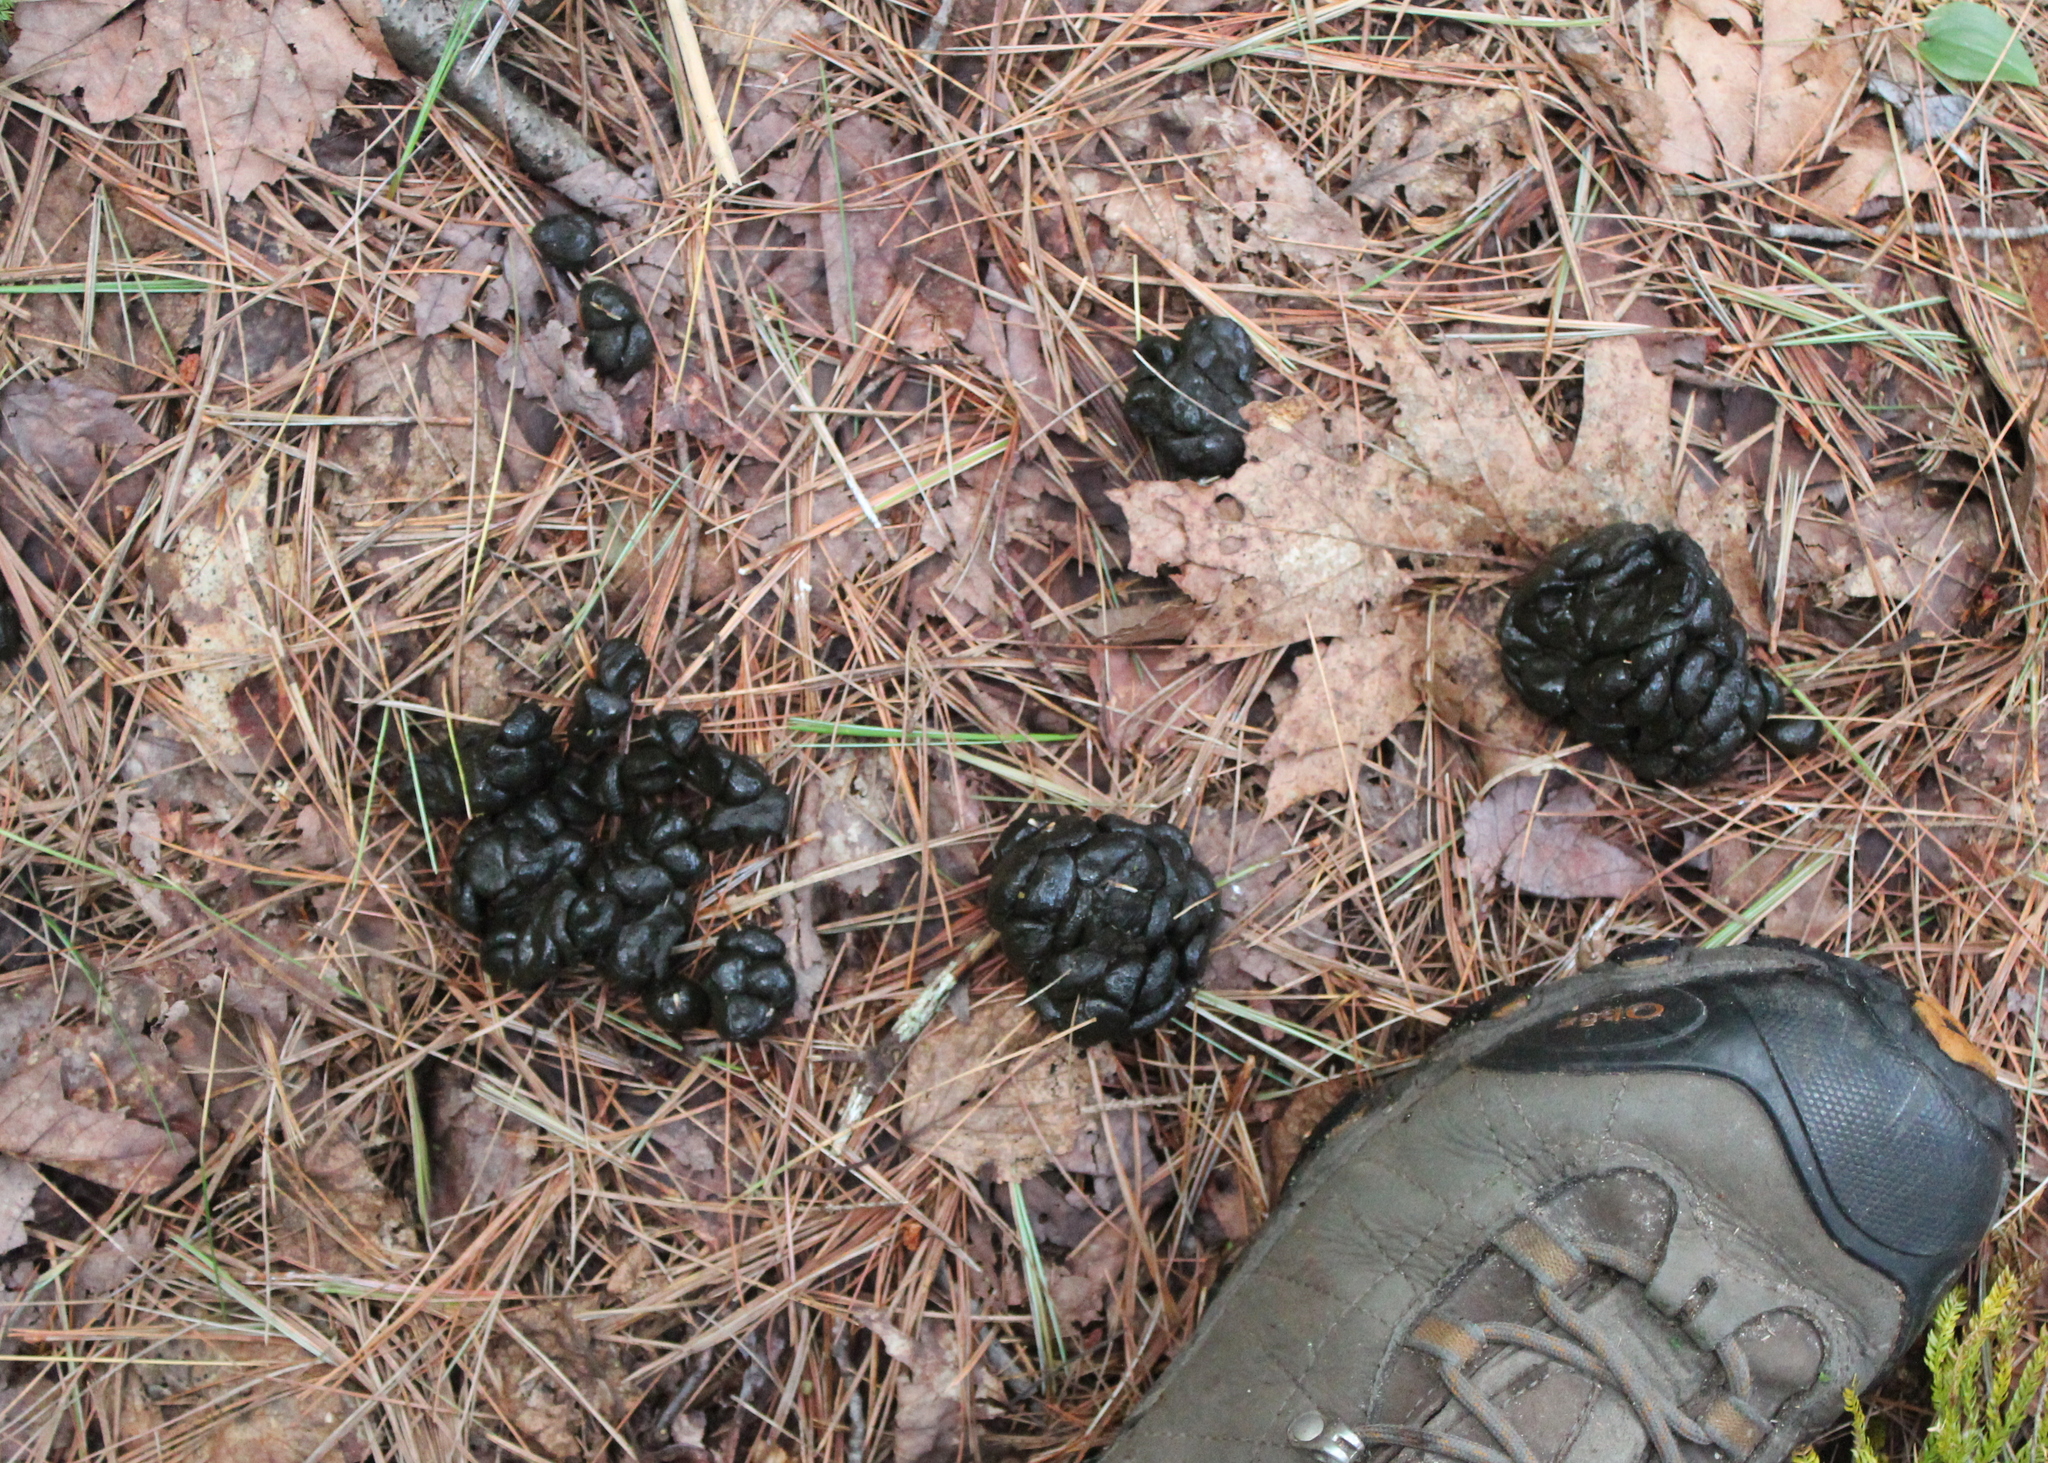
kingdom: Animalia
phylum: Chordata
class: Mammalia
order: Artiodactyla
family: Cervidae
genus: Odocoileus
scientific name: Odocoileus virginianus
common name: White-tailed deer
